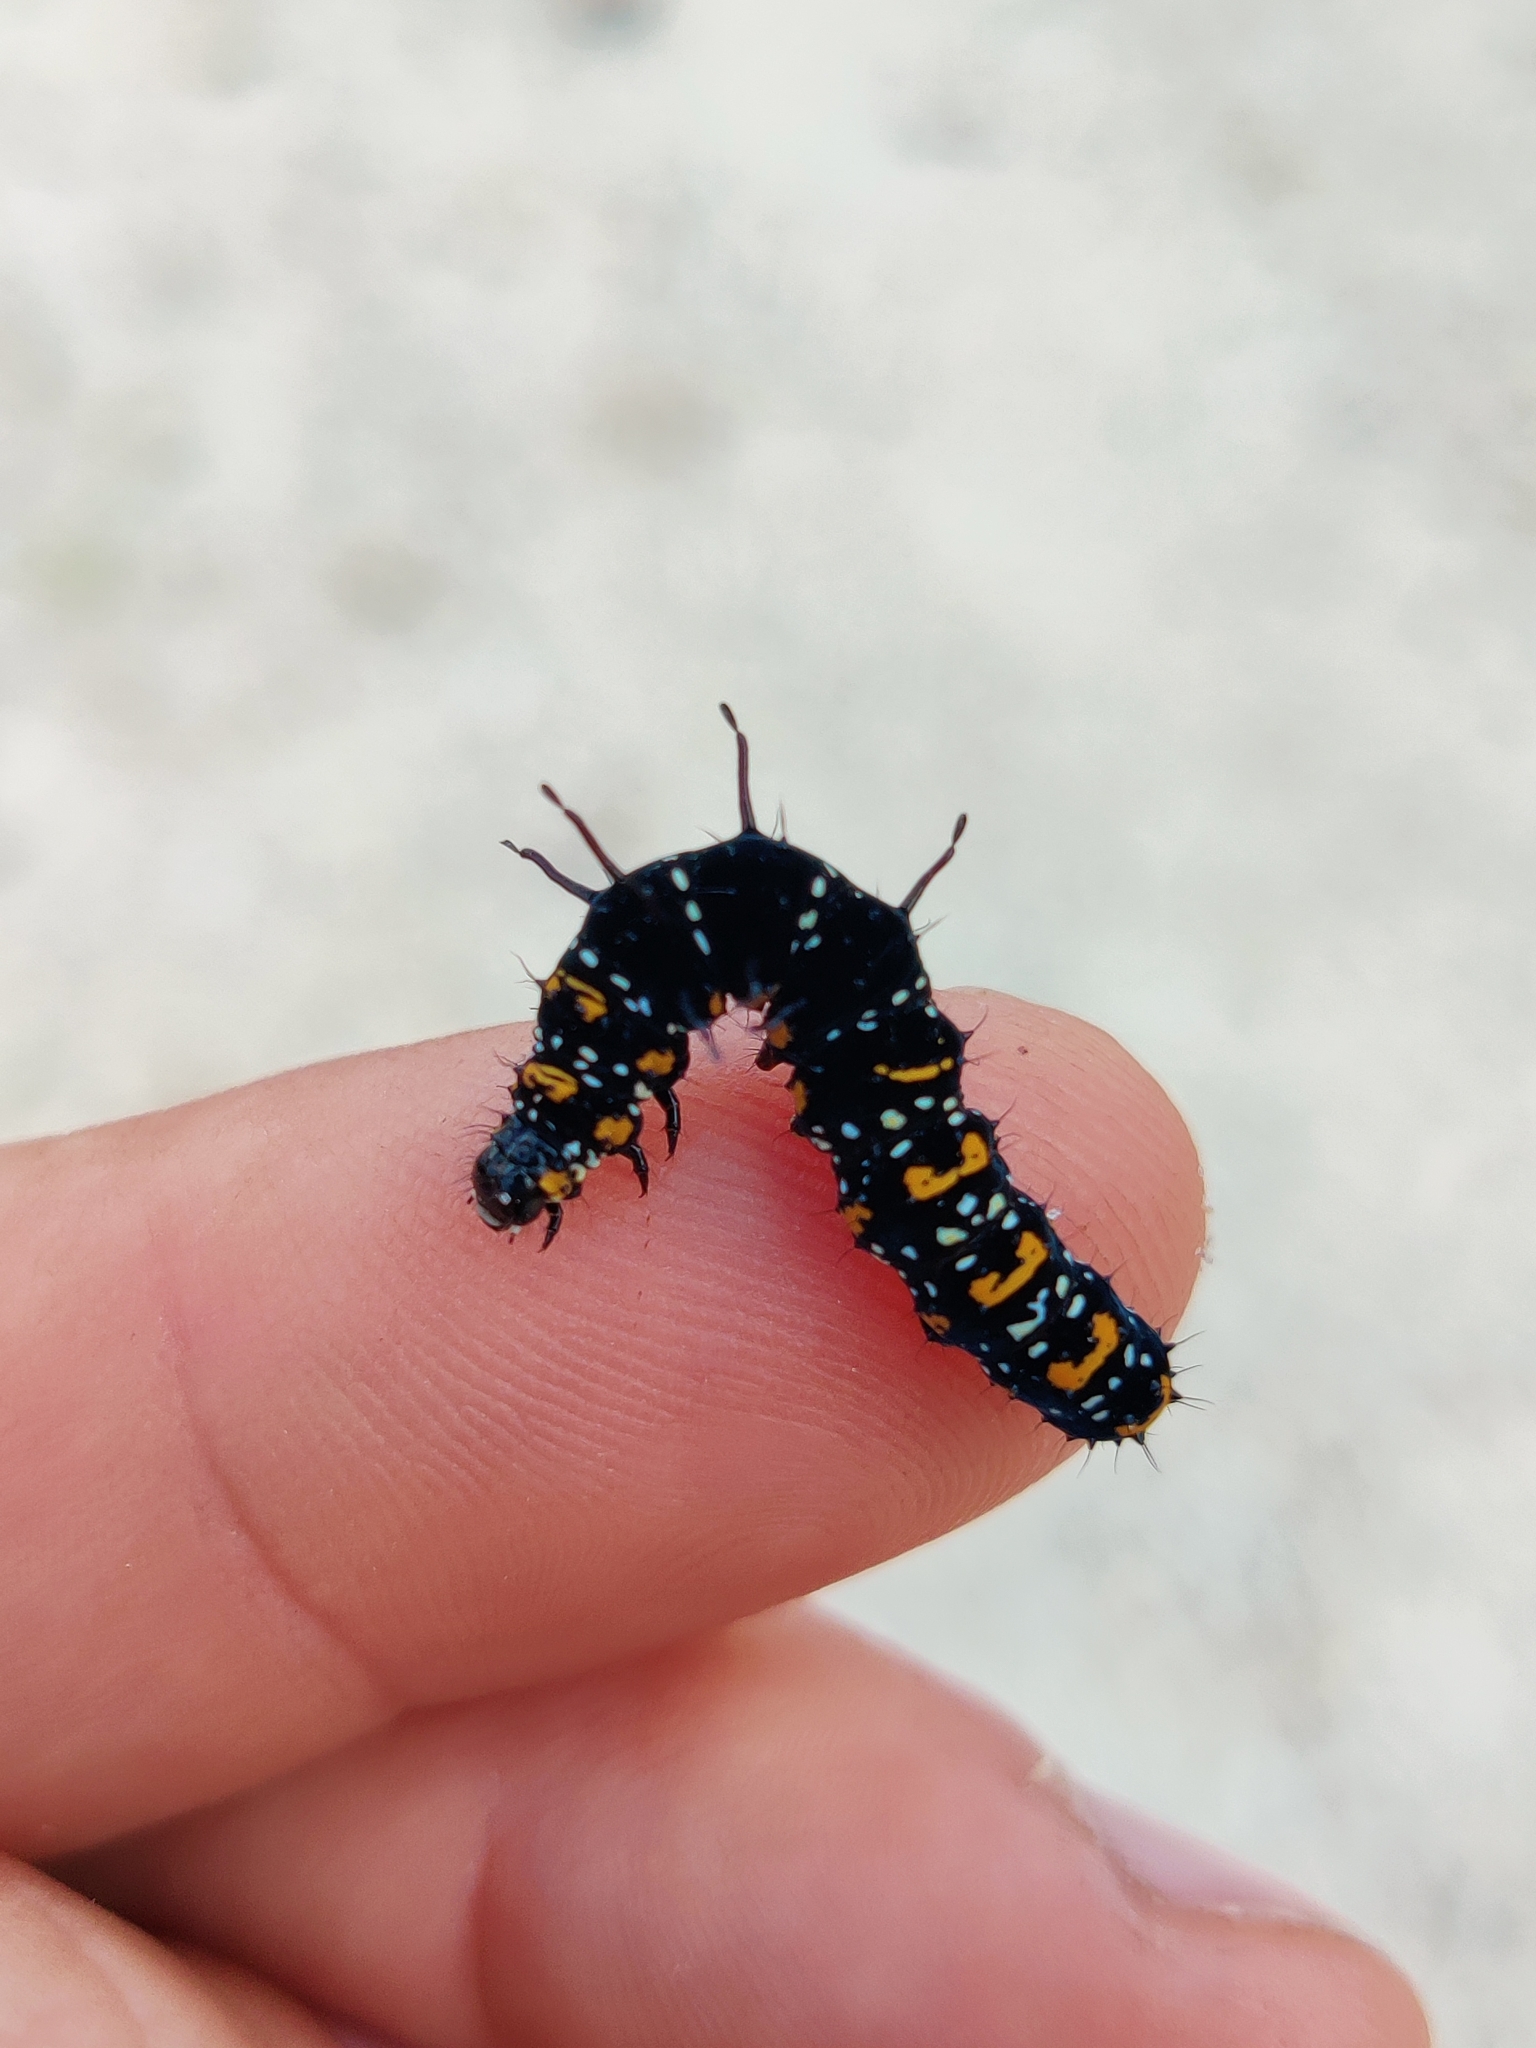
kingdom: Animalia
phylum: Arthropoda
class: Insecta
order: Lepidoptera
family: Noctuidae
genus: Cydosia
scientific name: Cydosia nobilitella
